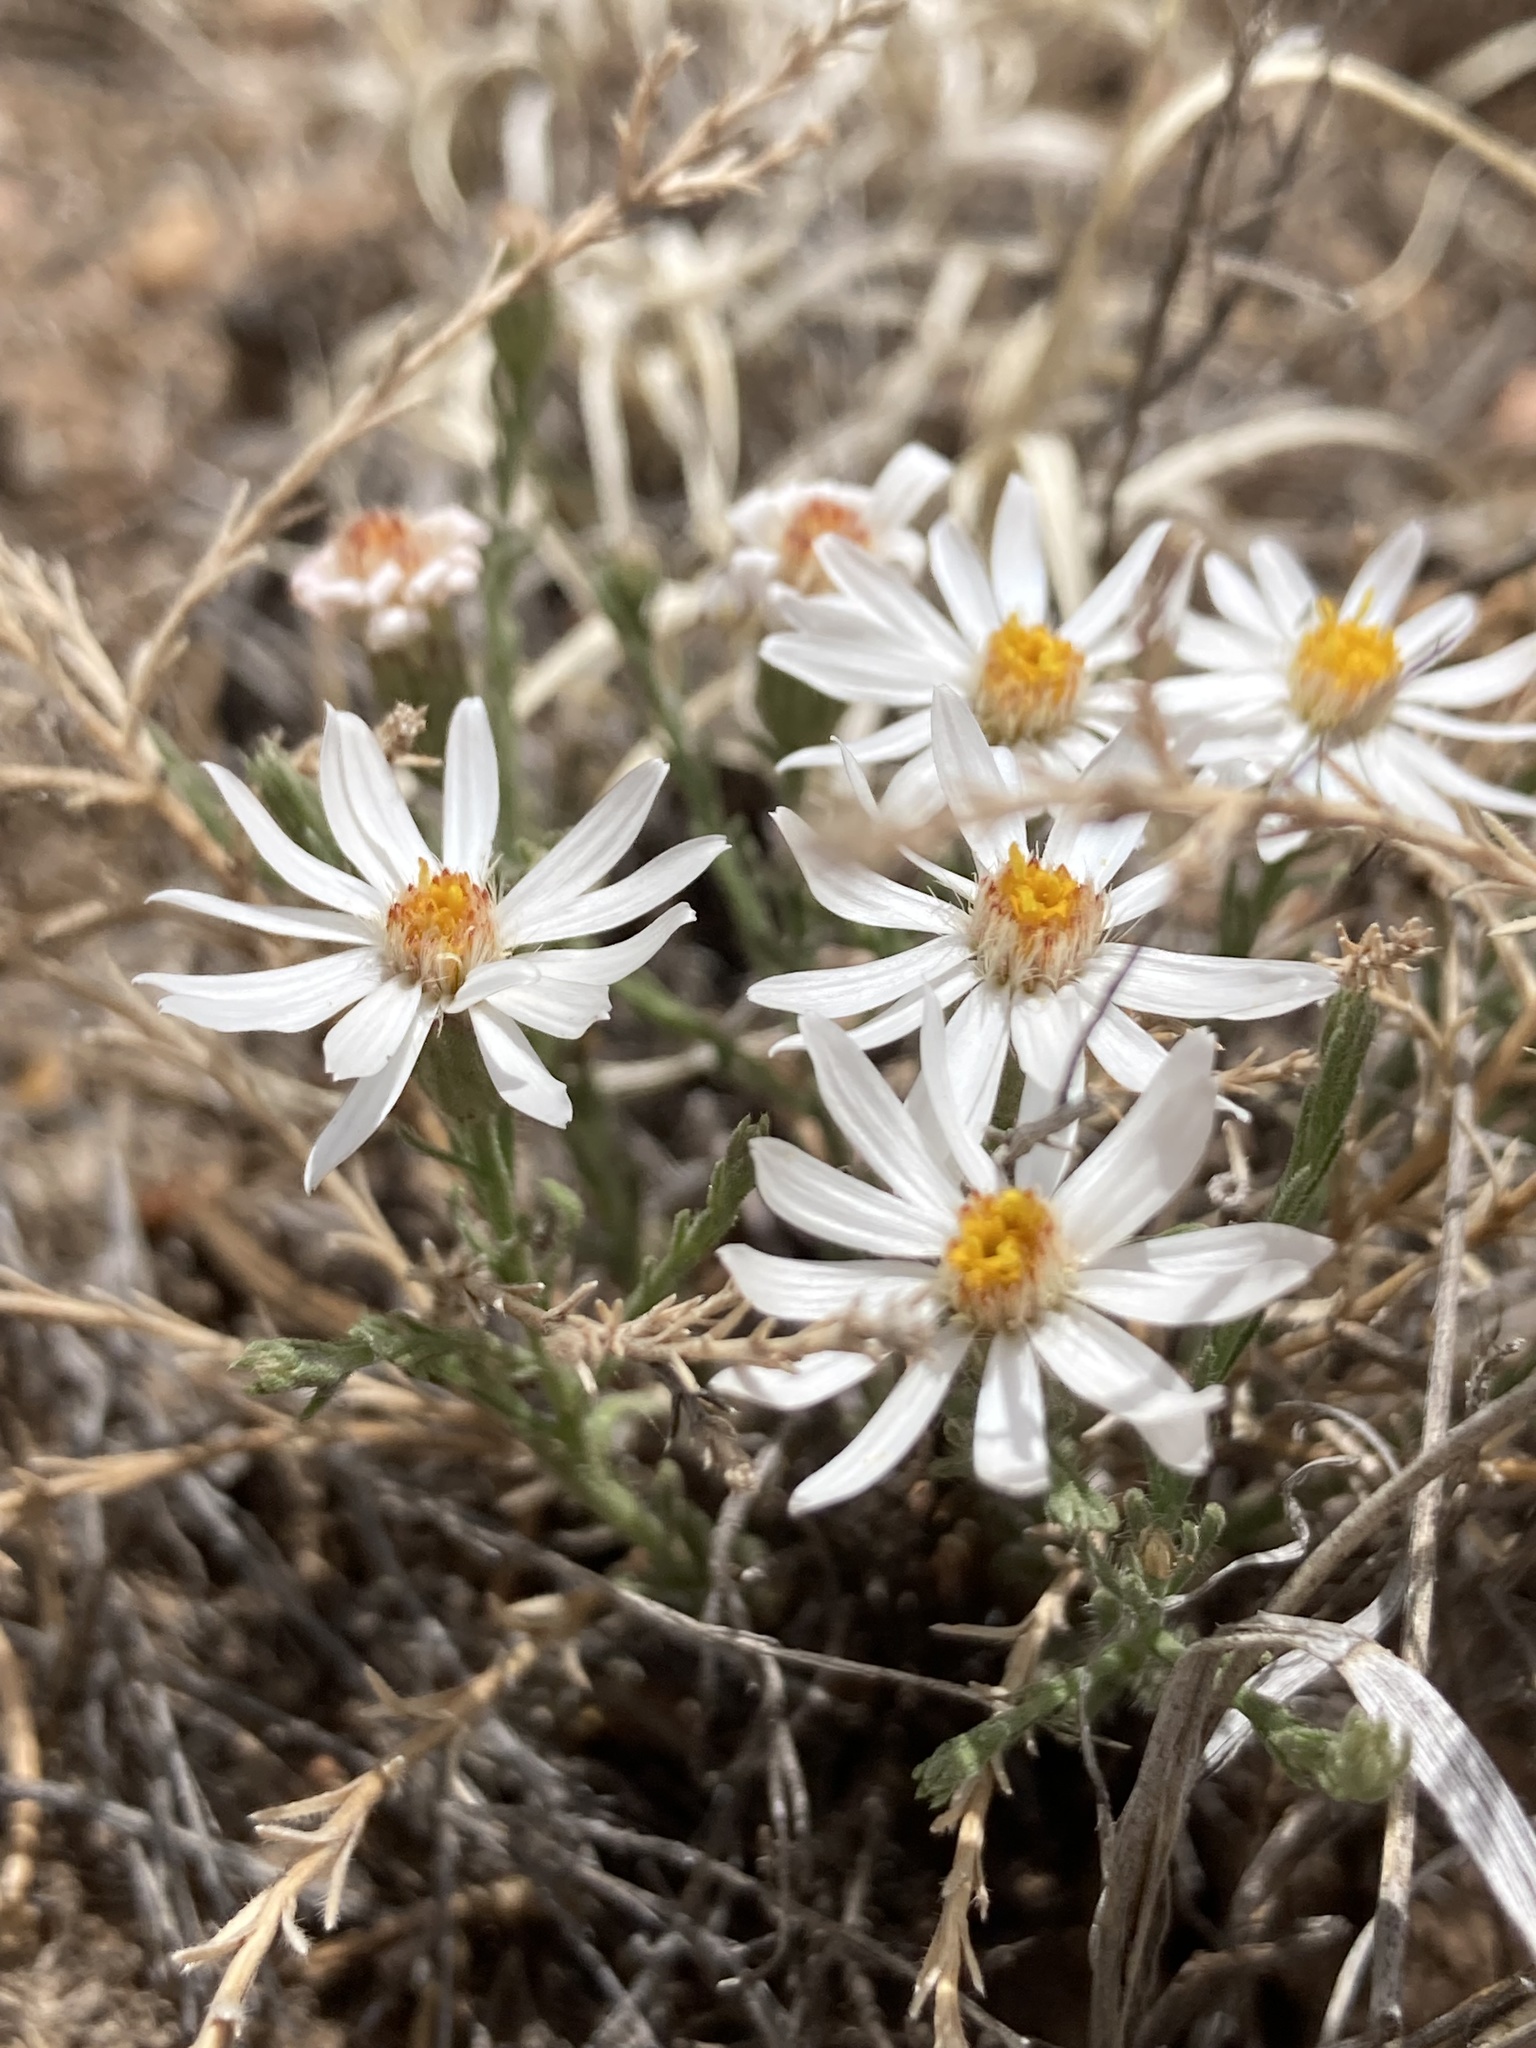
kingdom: Plantae
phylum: Tracheophyta
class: Magnoliopsida
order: Asterales
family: Asteraceae
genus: Chaetopappa
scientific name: Chaetopappa ericoides
